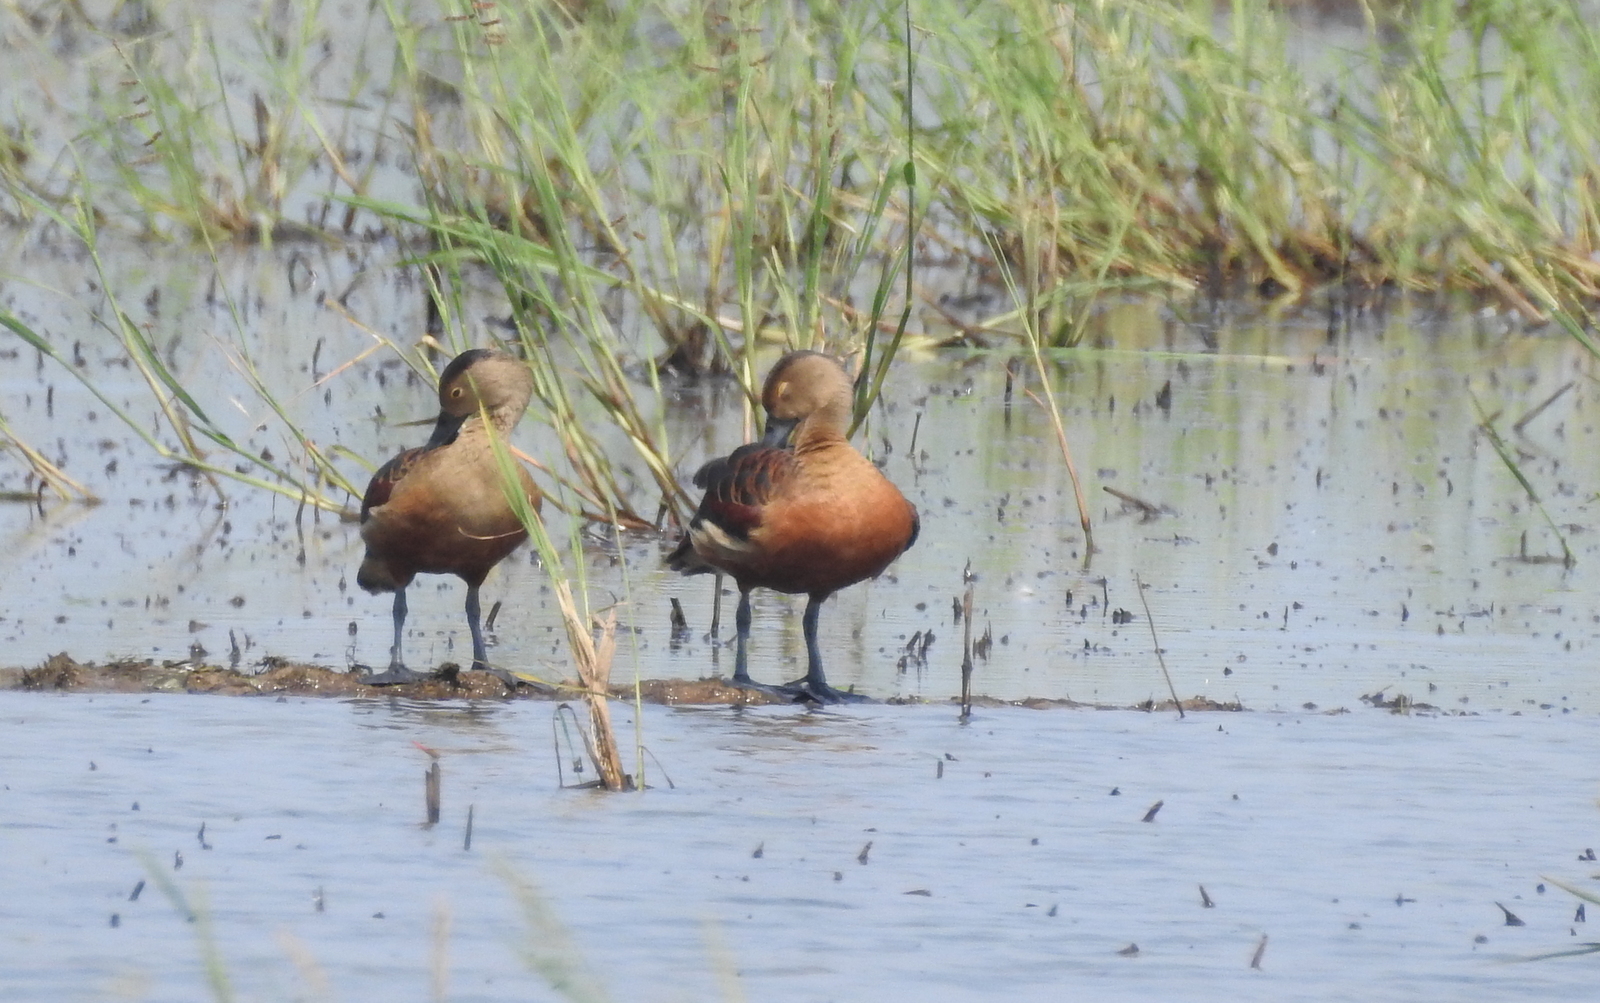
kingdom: Animalia
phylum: Chordata
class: Aves
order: Anseriformes
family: Anatidae
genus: Dendrocygna
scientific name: Dendrocygna javanica
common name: Lesser whistling-duck
